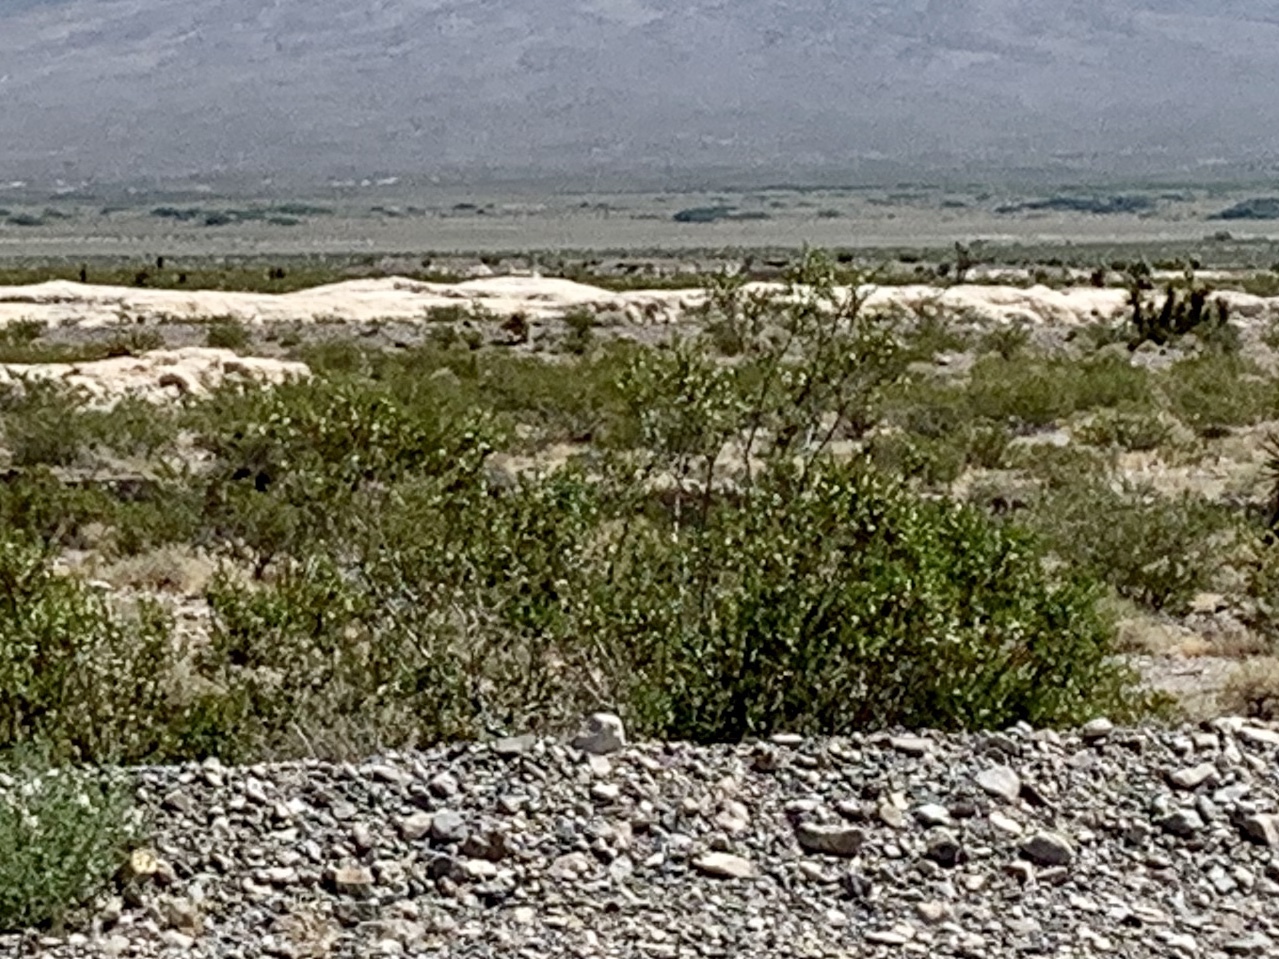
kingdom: Plantae
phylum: Tracheophyta
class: Magnoliopsida
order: Zygophyllales
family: Zygophyllaceae
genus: Larrea
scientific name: Larrea tridentata
